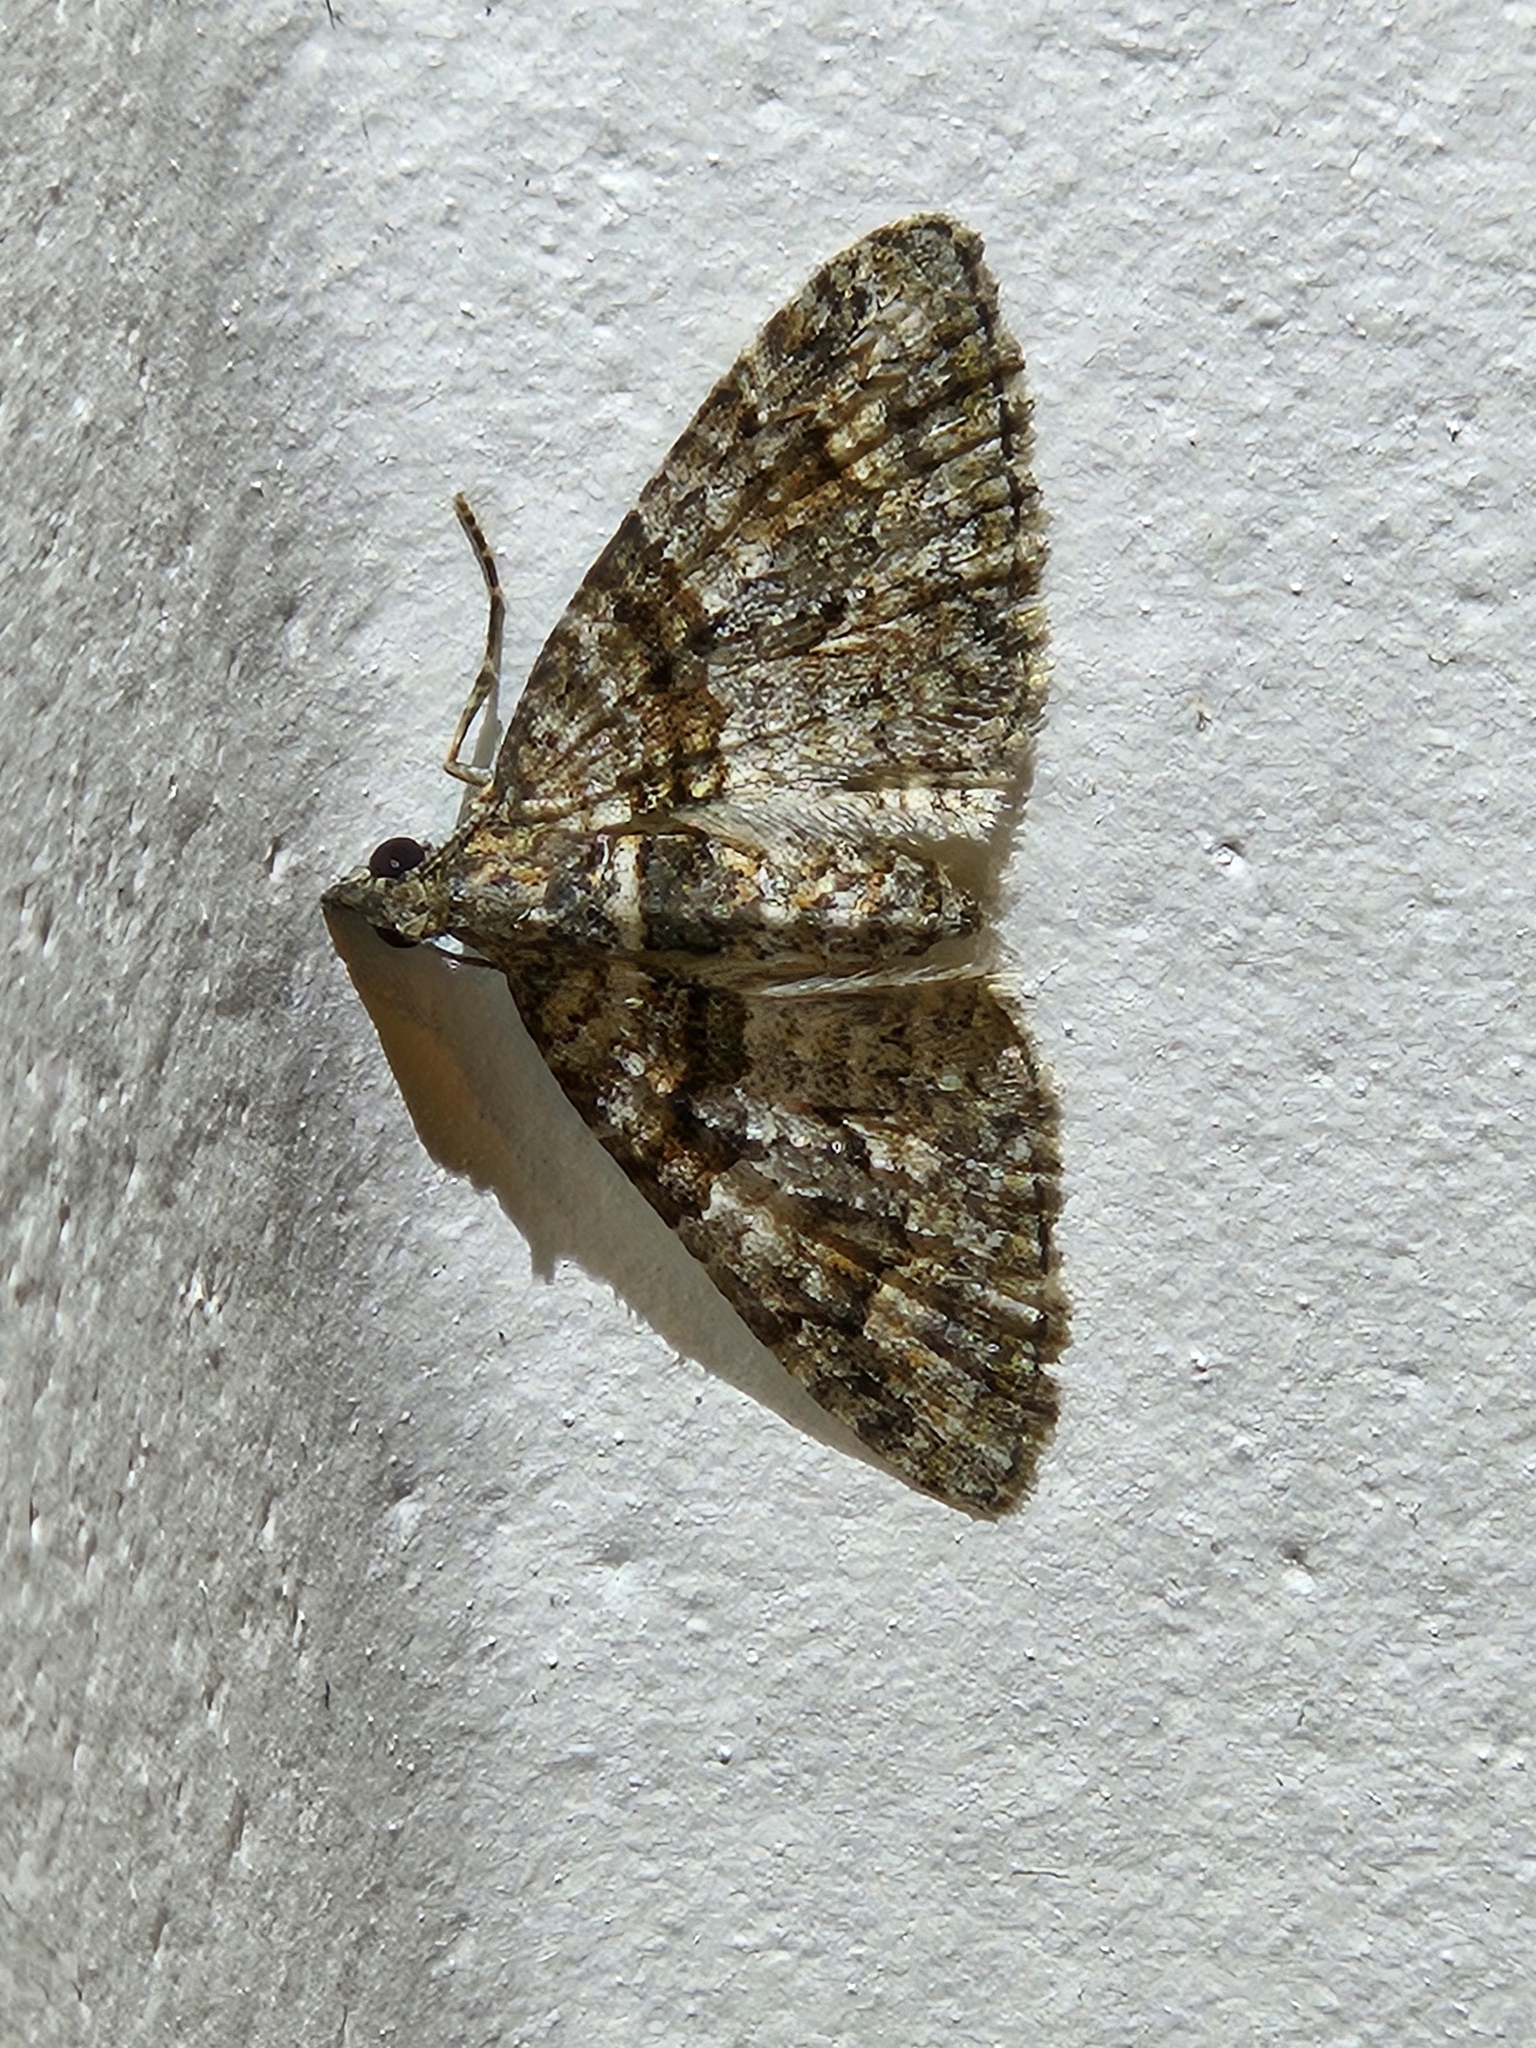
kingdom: Animalia
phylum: Arthropoda
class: Insecta
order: Lepidoptera
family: Geometridae
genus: Phrissogonus
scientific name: Phrissogonus laticostata
